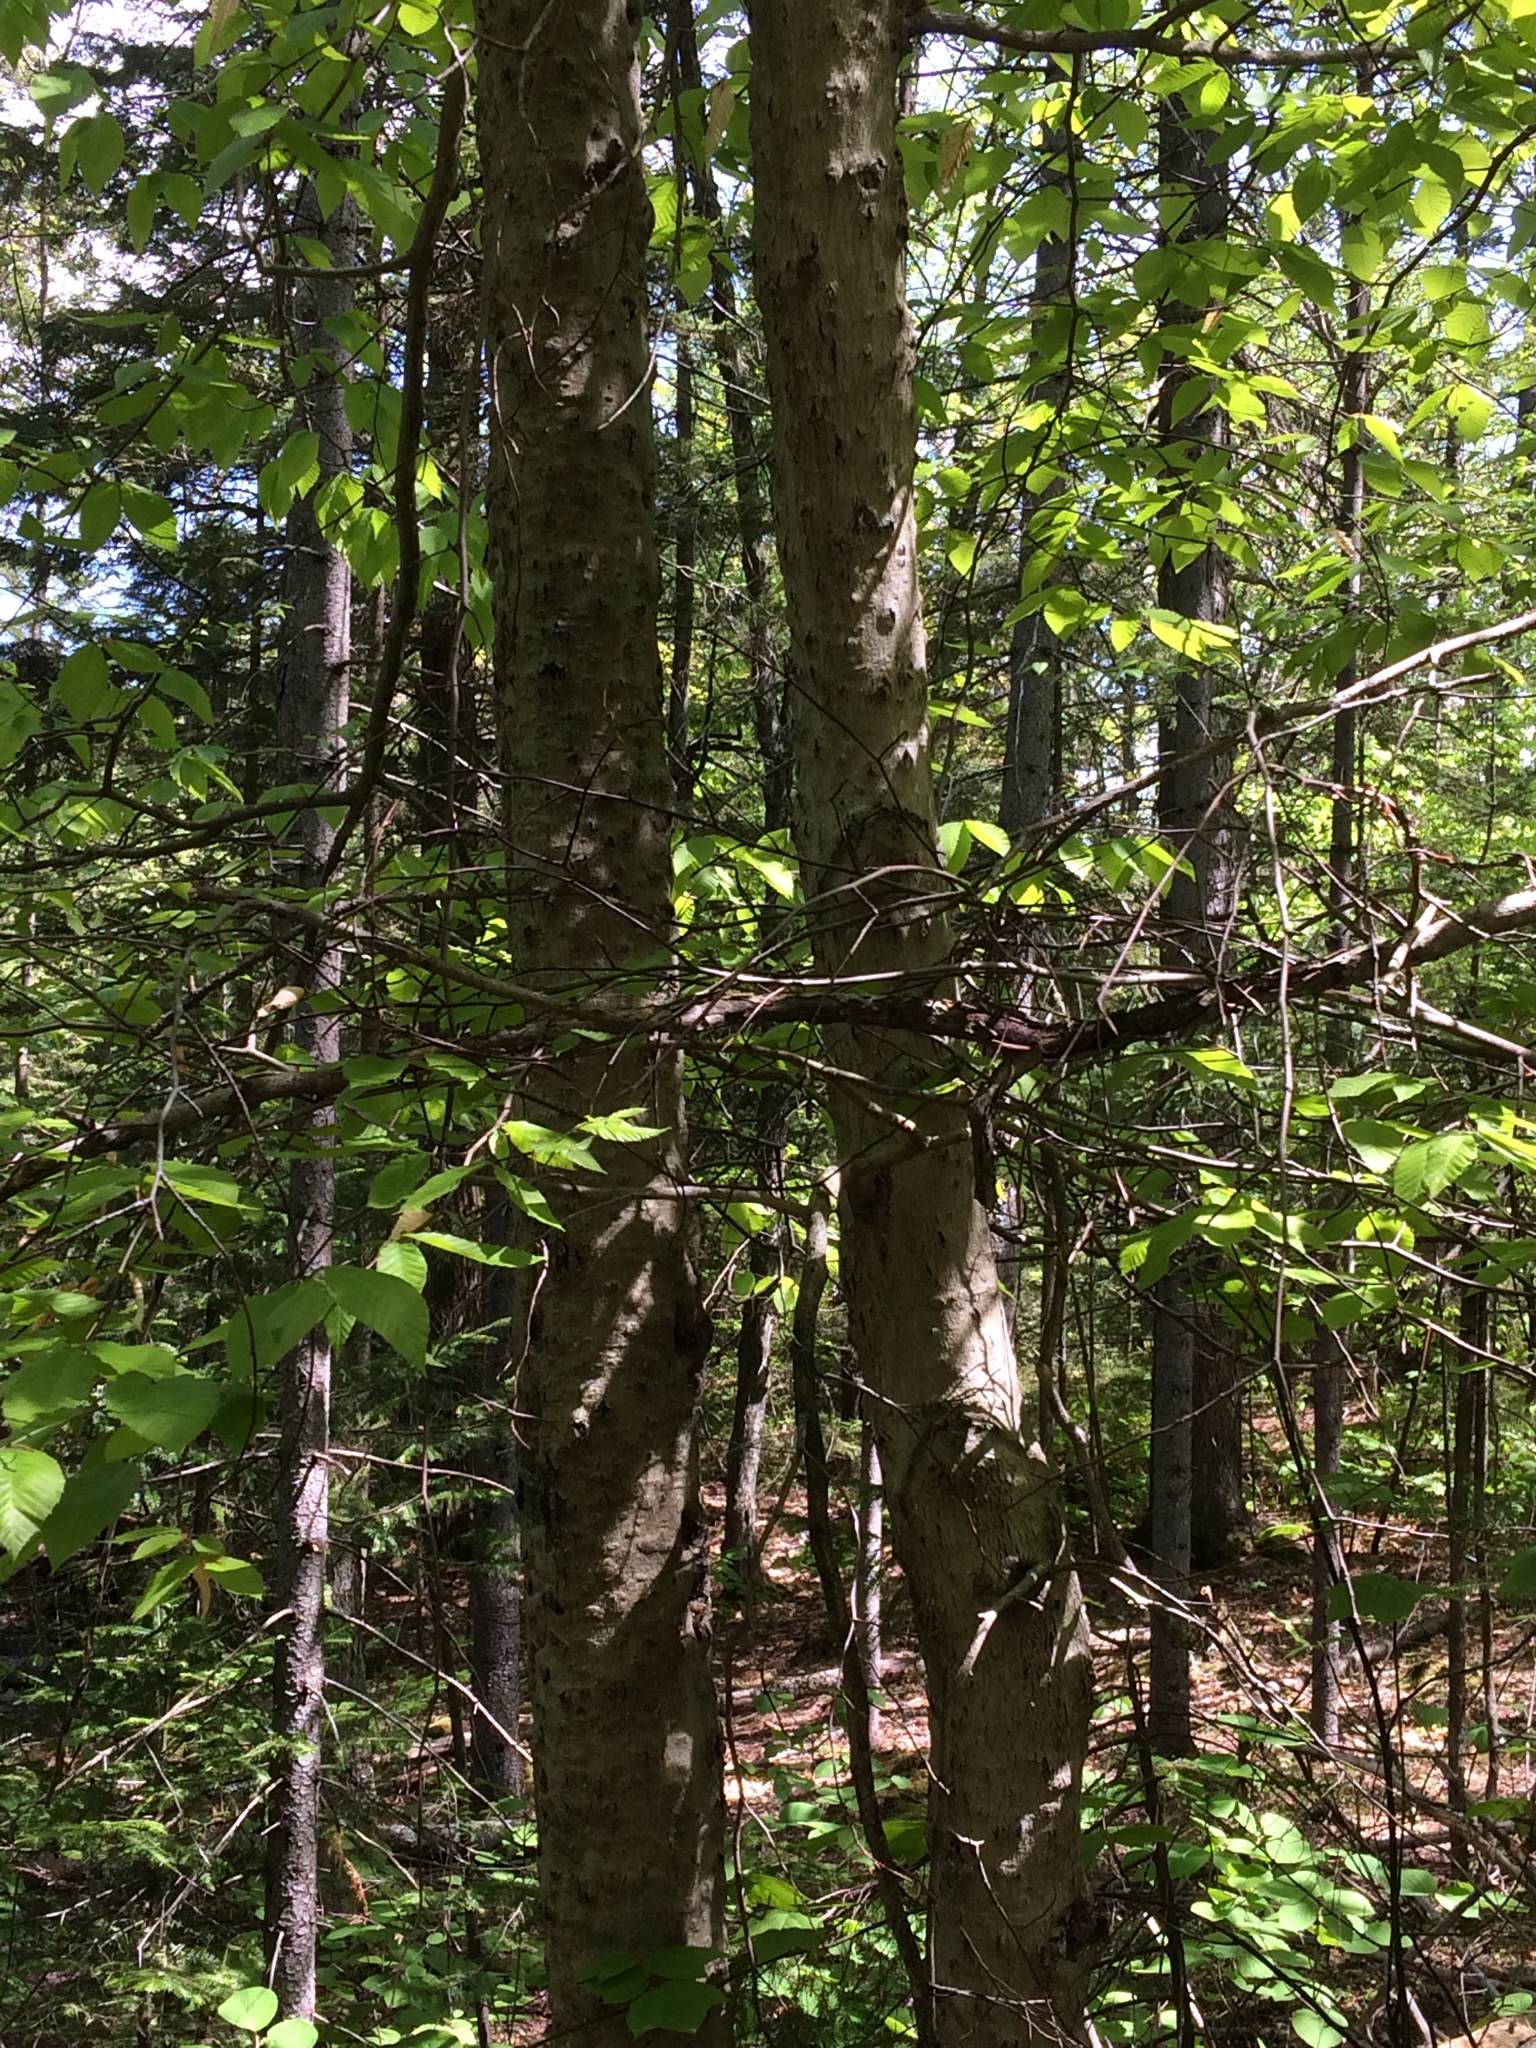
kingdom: Plantae
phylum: Tracheophyta
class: Magnoliopsida
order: Fagales
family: Fagaceae
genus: Fagus
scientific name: Fagus grandifolia
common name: American beech
